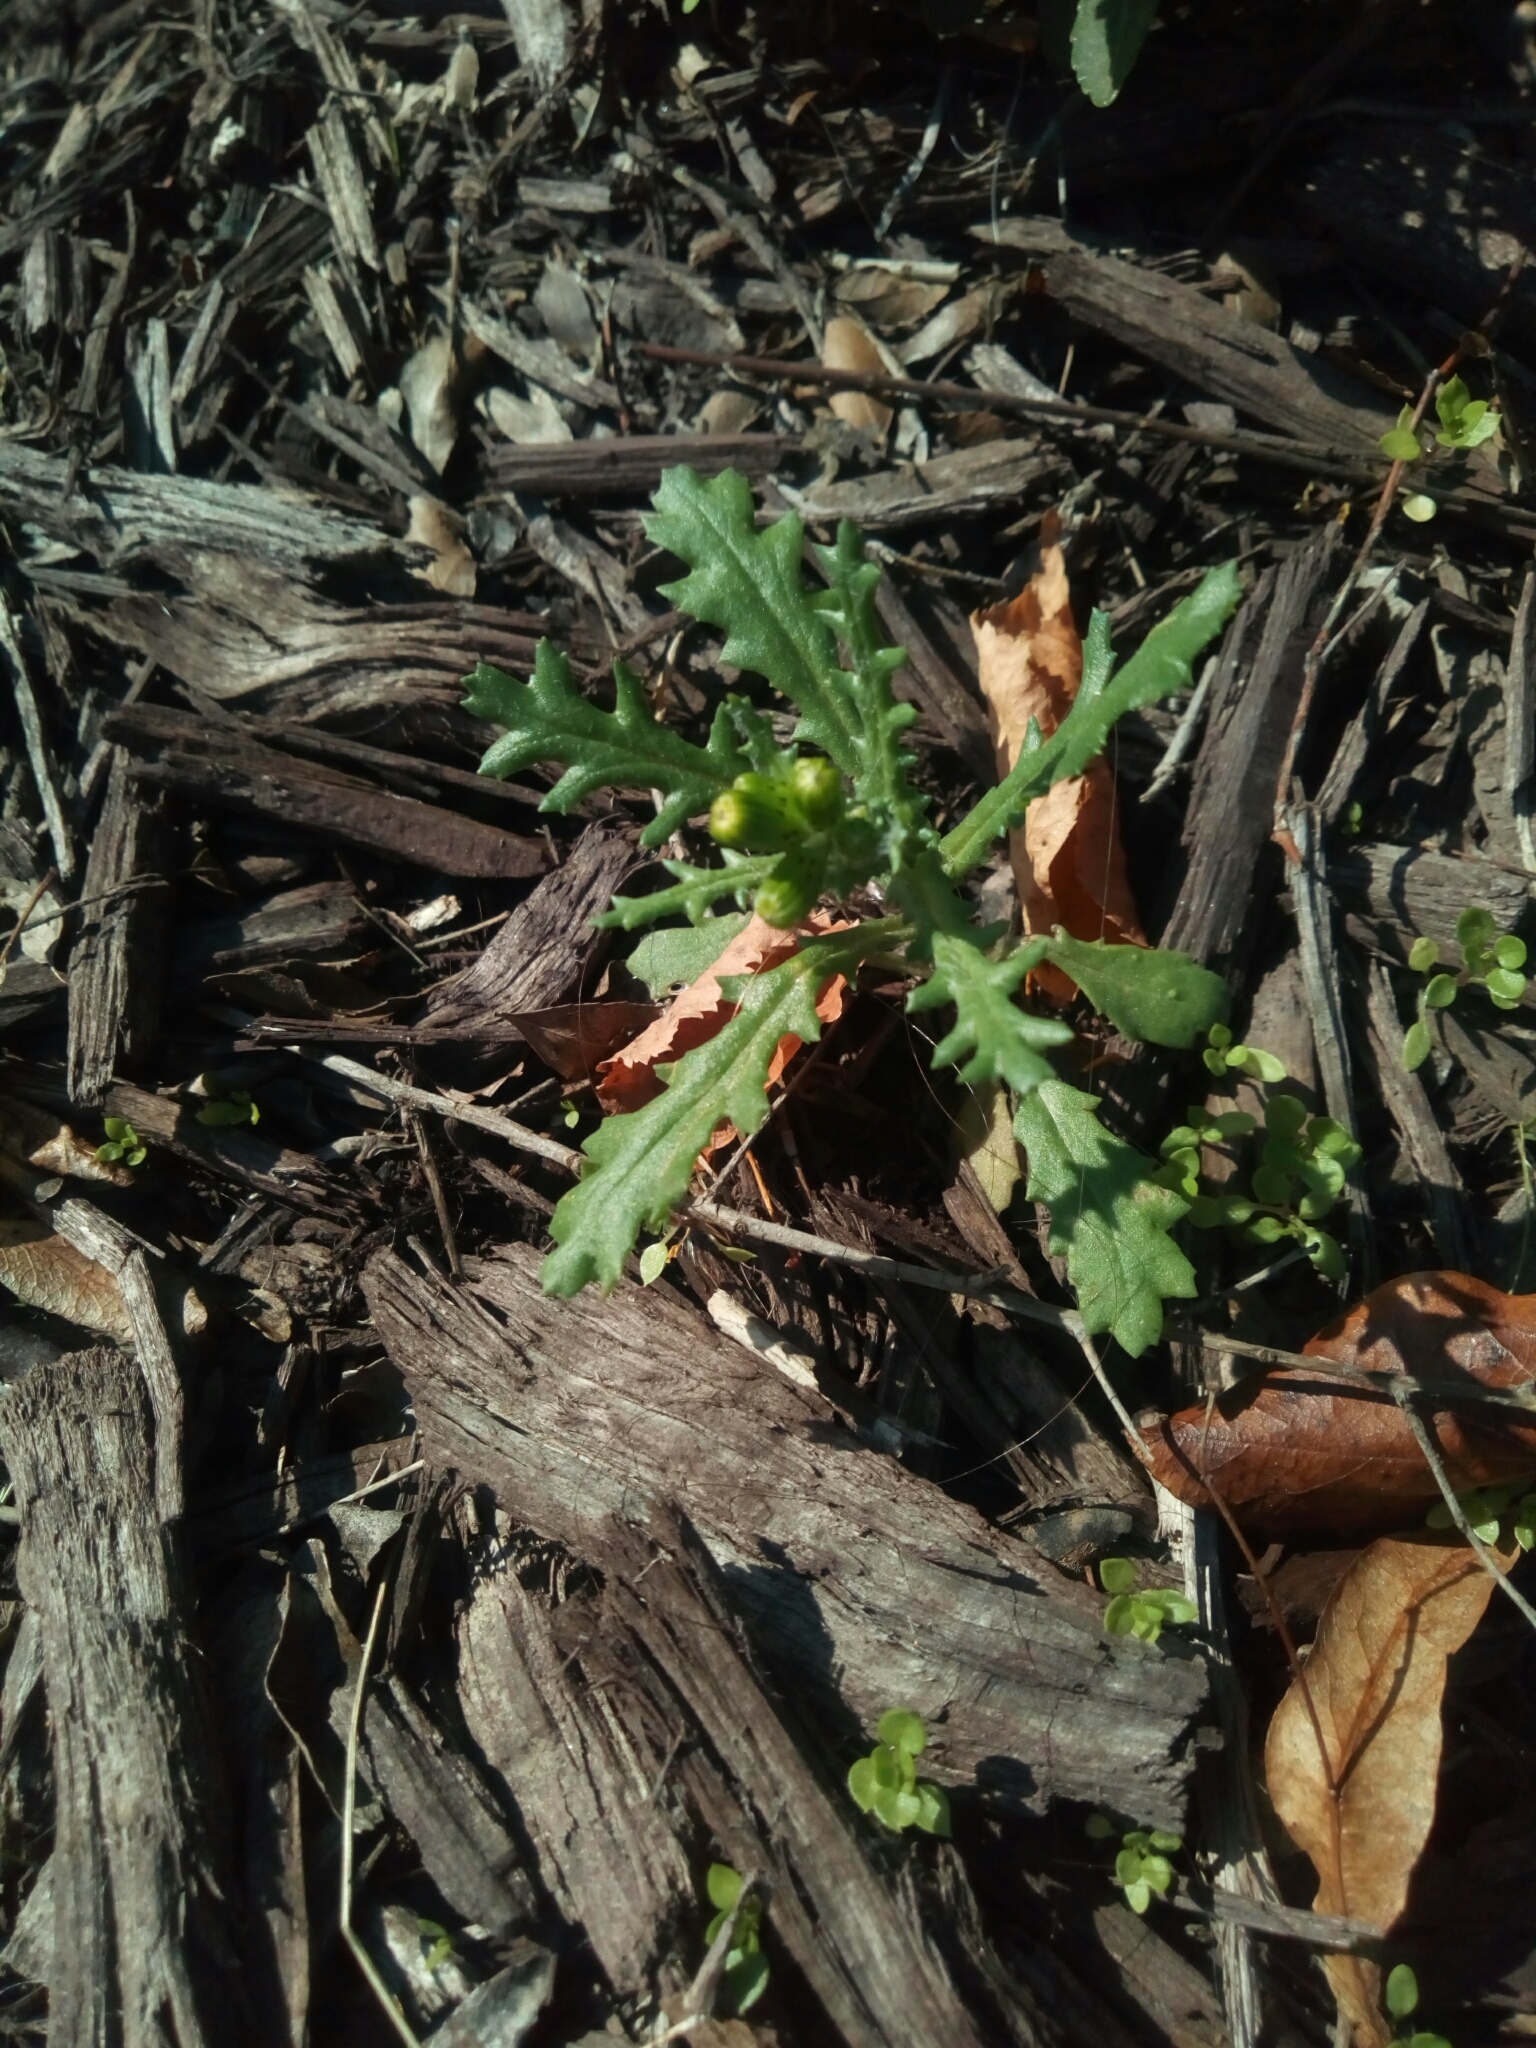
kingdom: Plantae
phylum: Tracheophyta
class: Magnoliopsida
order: Asterales
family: Asteraceae
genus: Senecio
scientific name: Senecio vulgaris
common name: Old-man-in-the-spring
